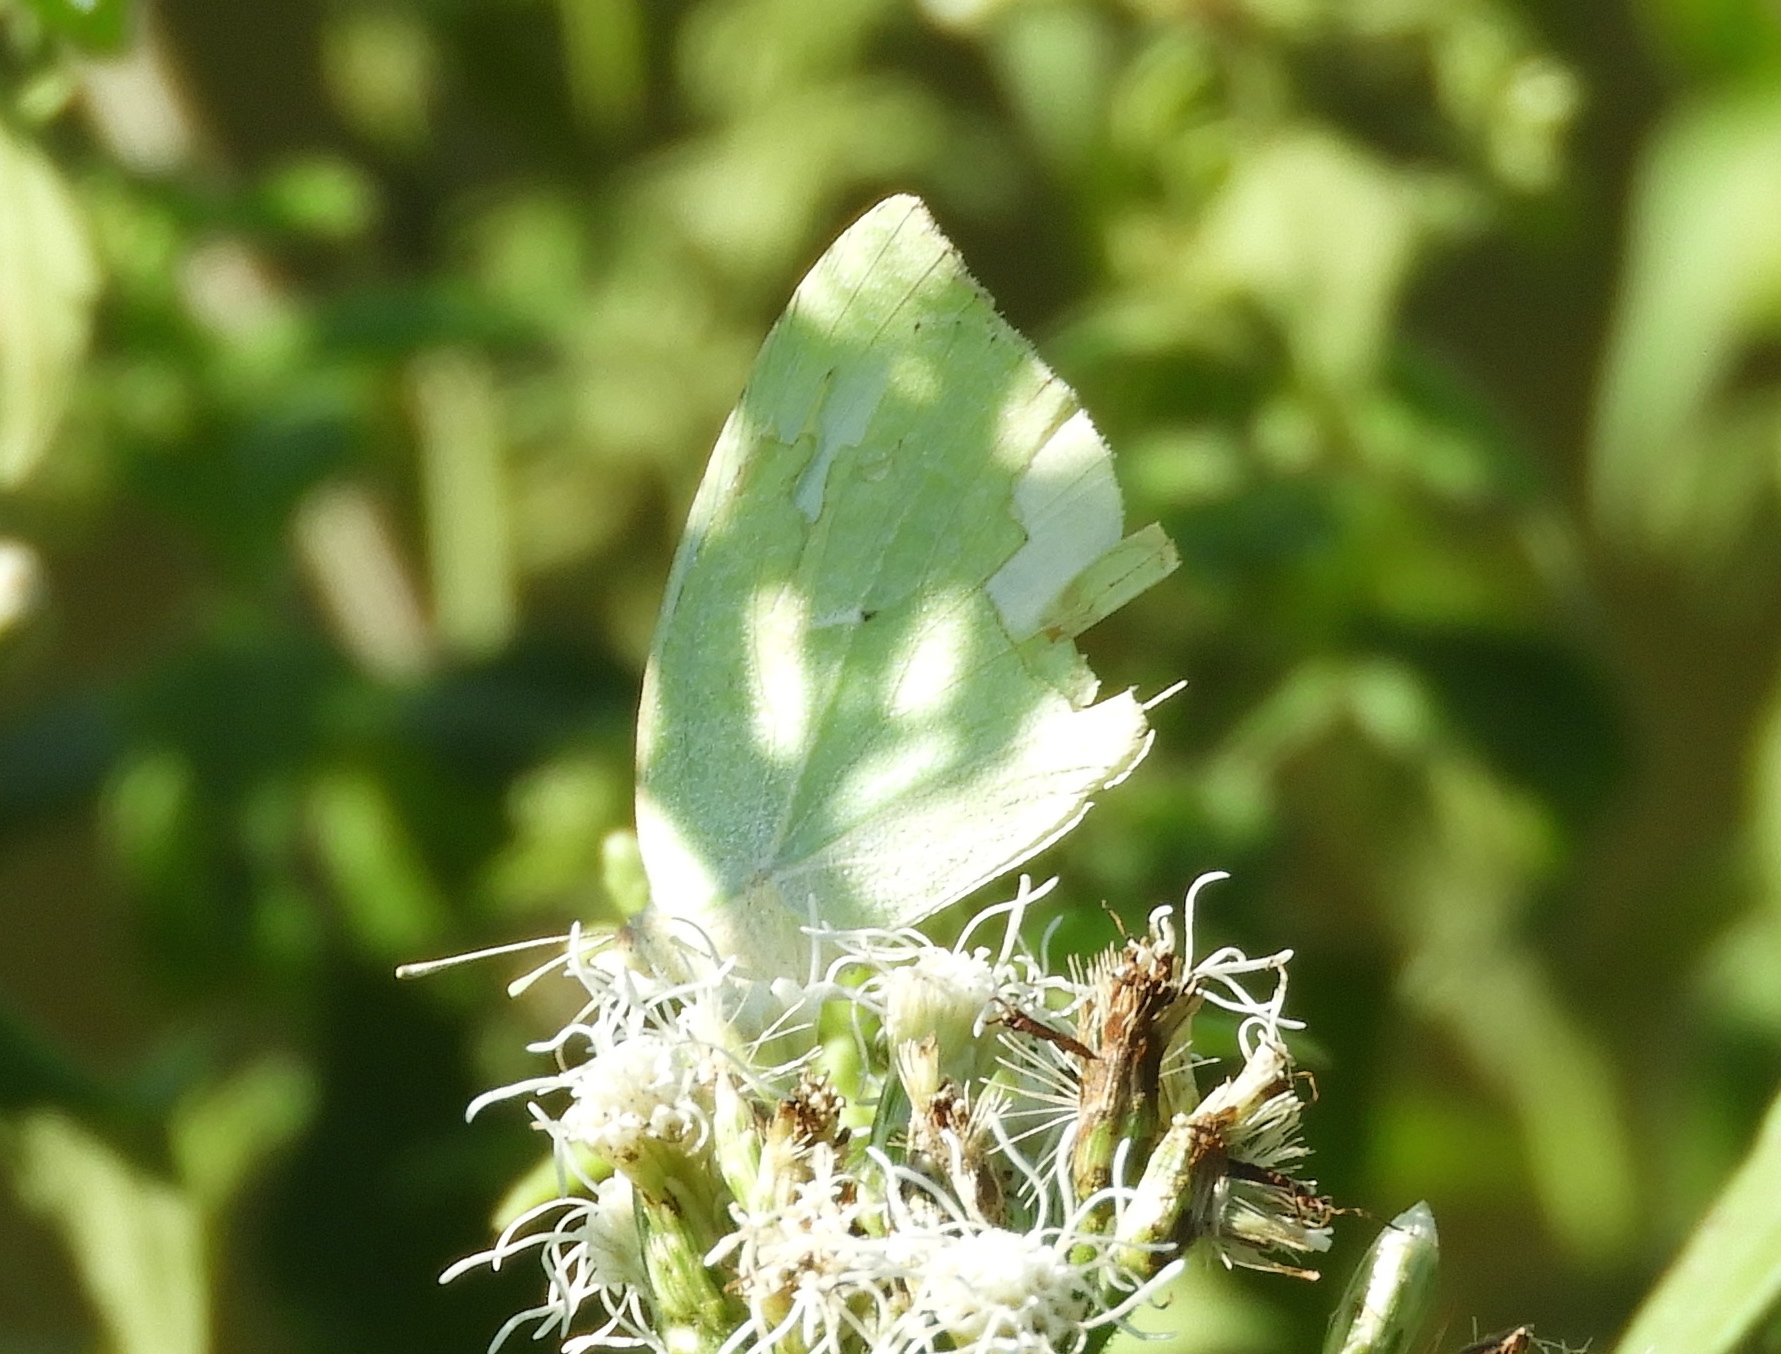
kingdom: Animalia
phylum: Arthropoda
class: Insecta
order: Lepidoptera
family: Pieridae
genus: Kricogonia
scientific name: Kricogonia lyside
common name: Guayacan sulphur,
